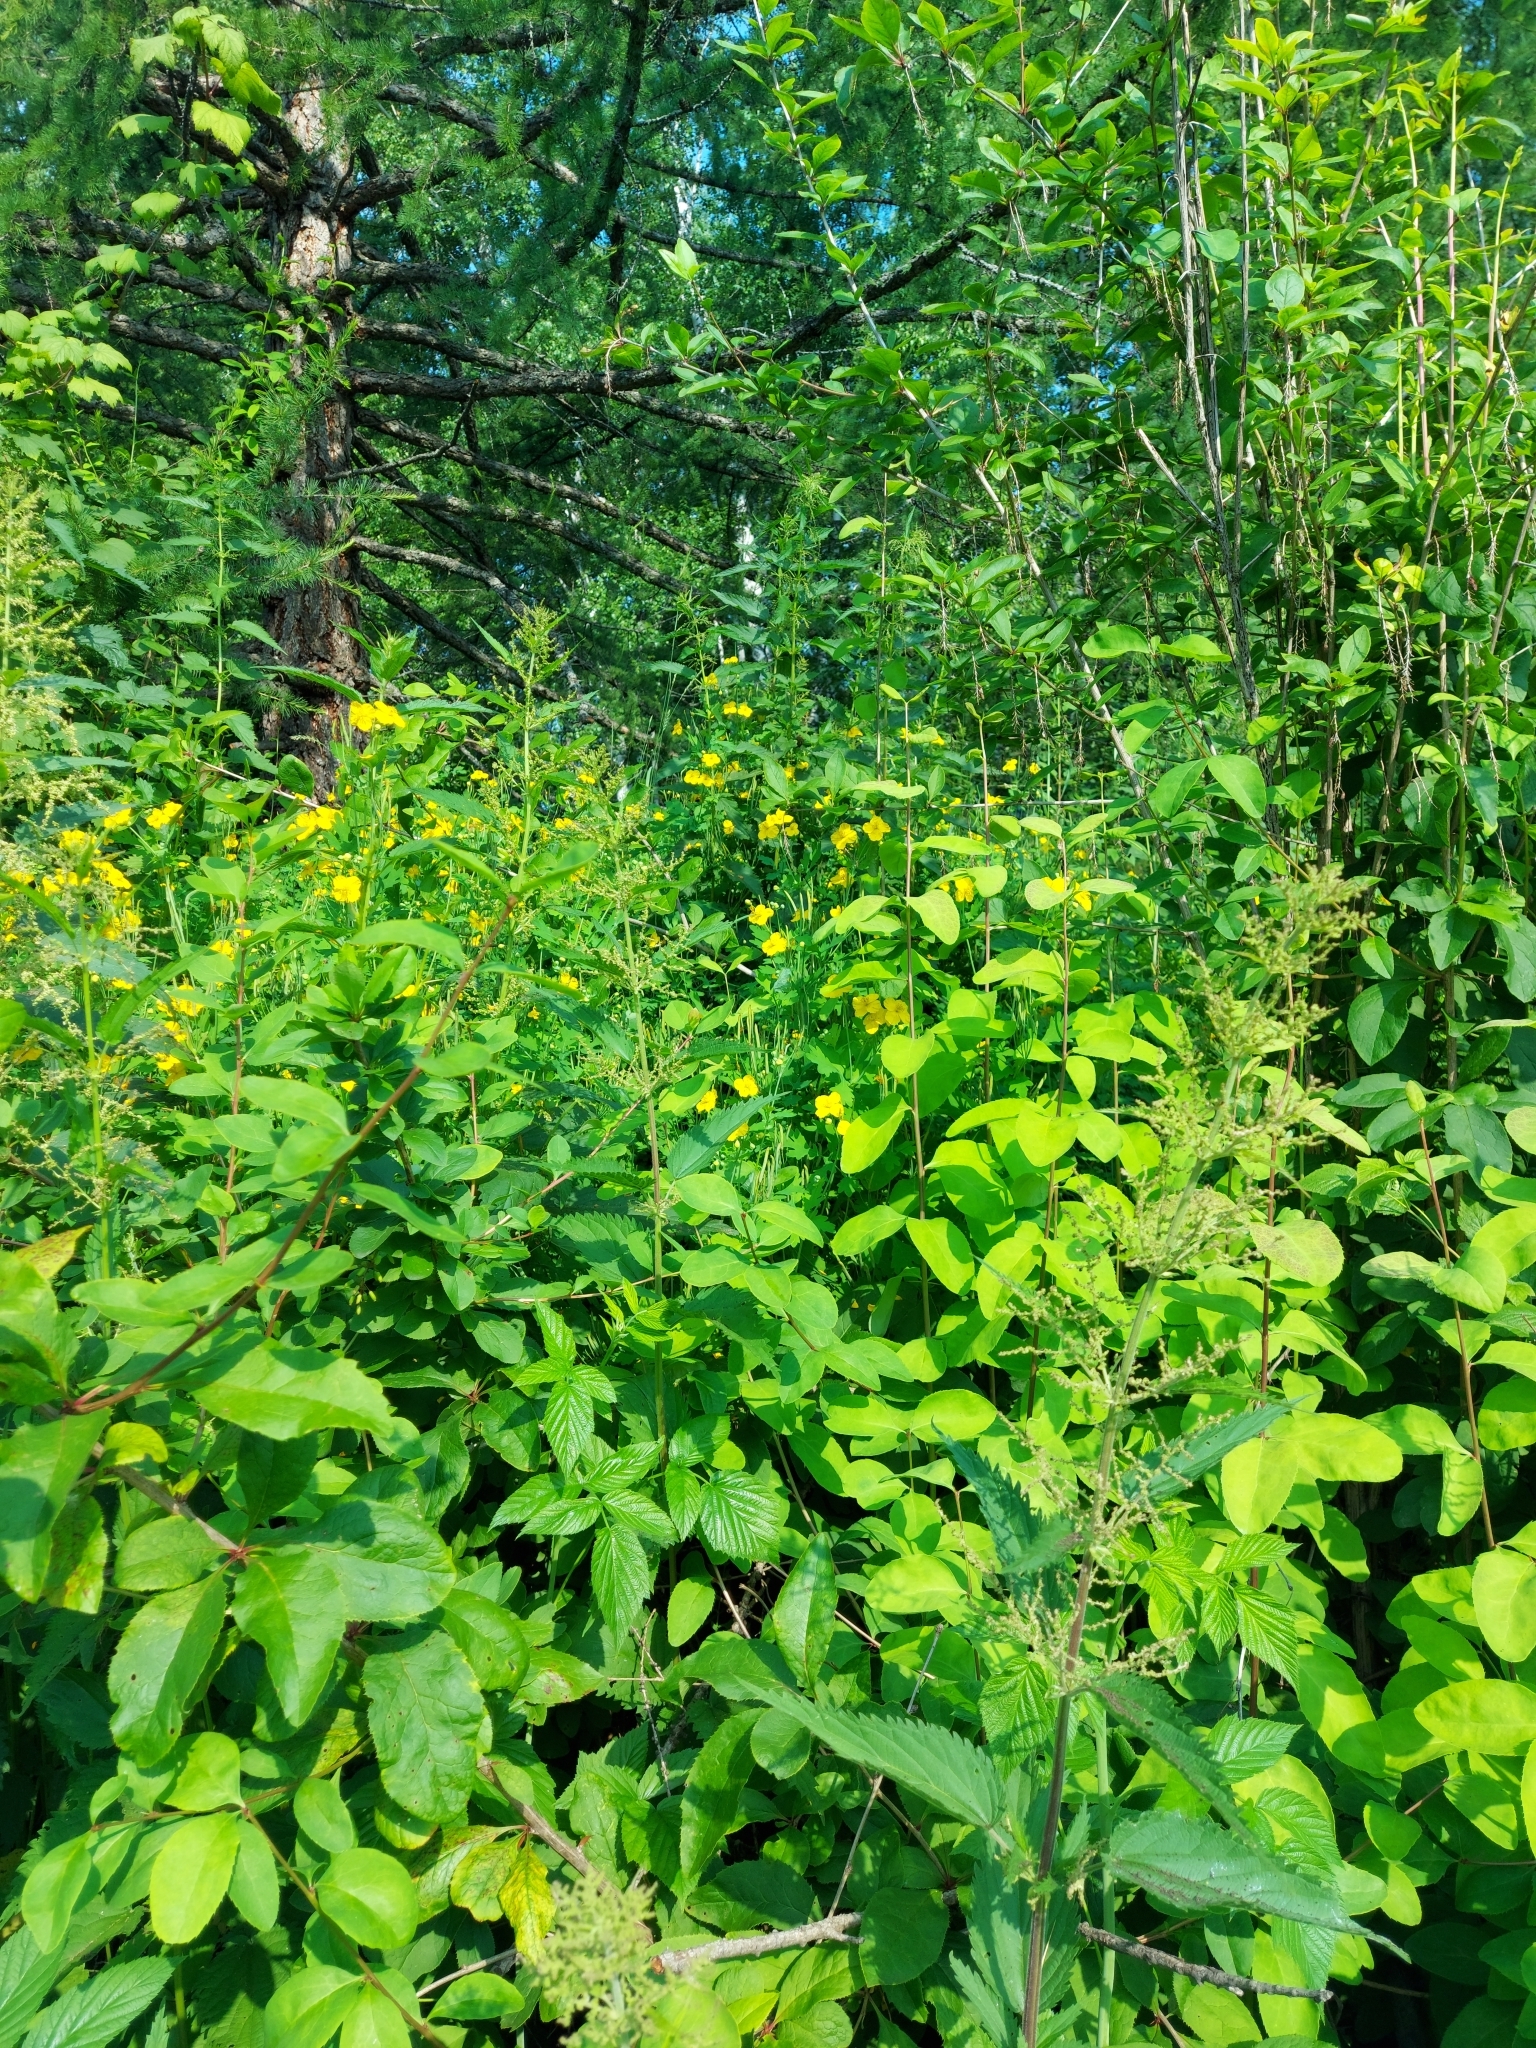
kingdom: Plantae
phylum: Tracheophyta
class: Magnoliopsida
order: Ranunculales
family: Papaveraceae
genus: Chelidonium
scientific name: Chelidonium majus
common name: Greater celandine
